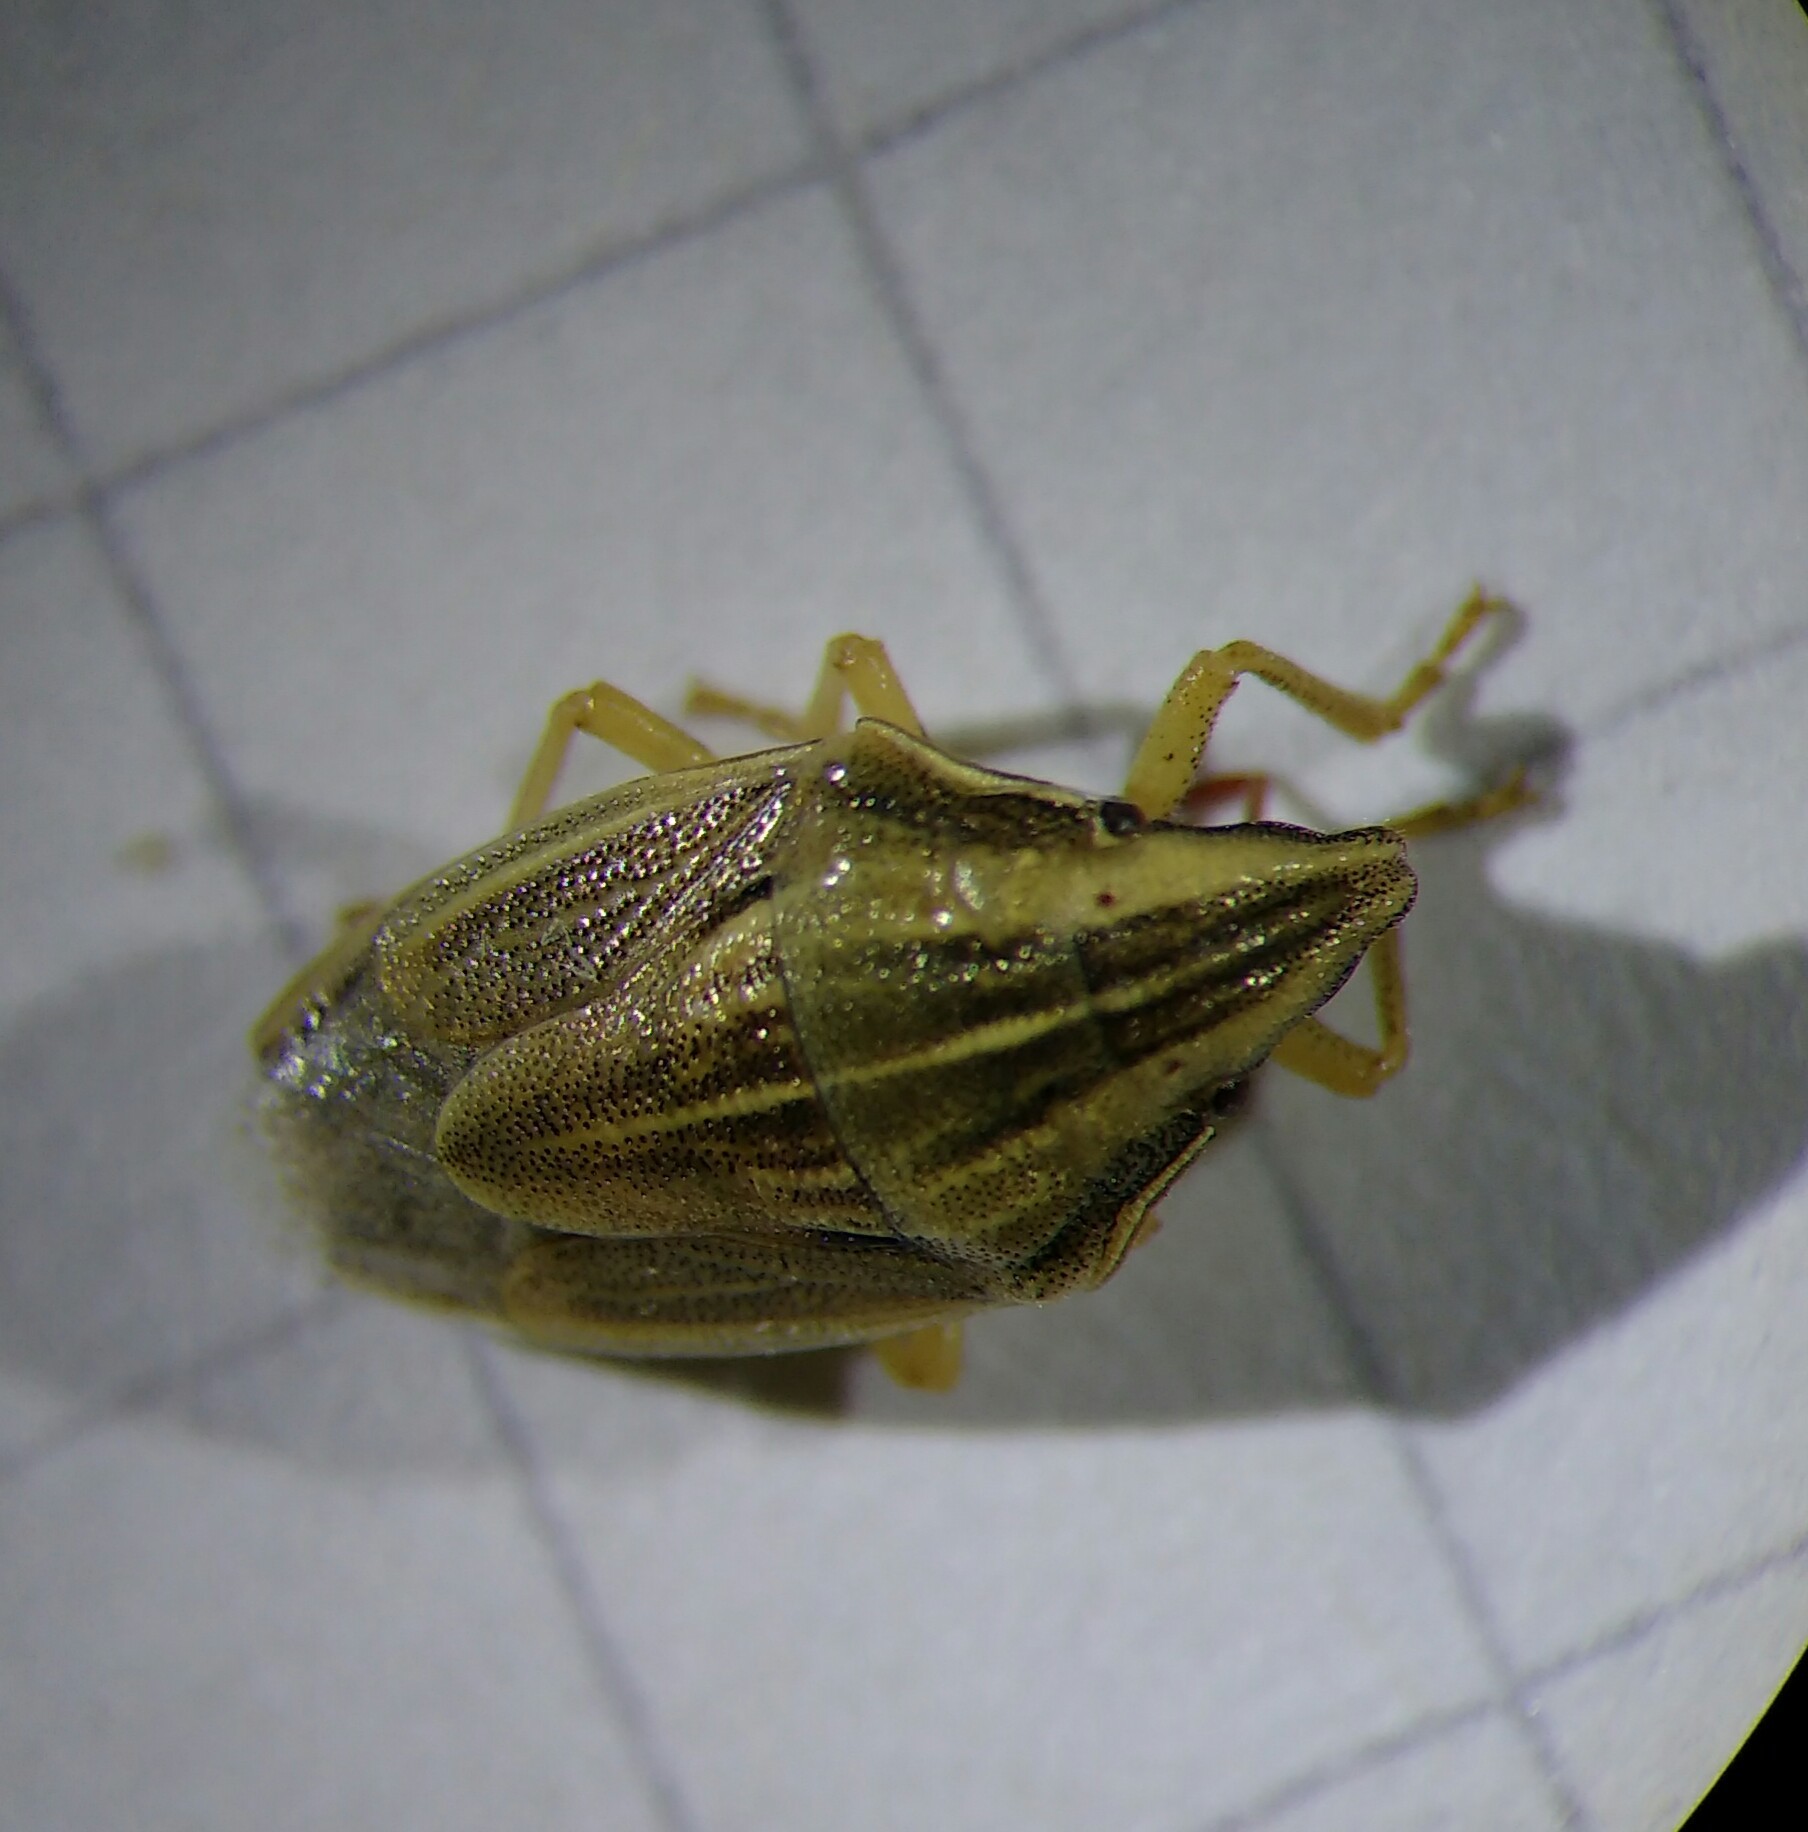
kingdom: Animalia
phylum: Arthropoda
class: Insecta
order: Hemiptera
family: Pentatomidae
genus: Aelia
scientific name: Aelia acuminata
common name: Bishop's mitre
